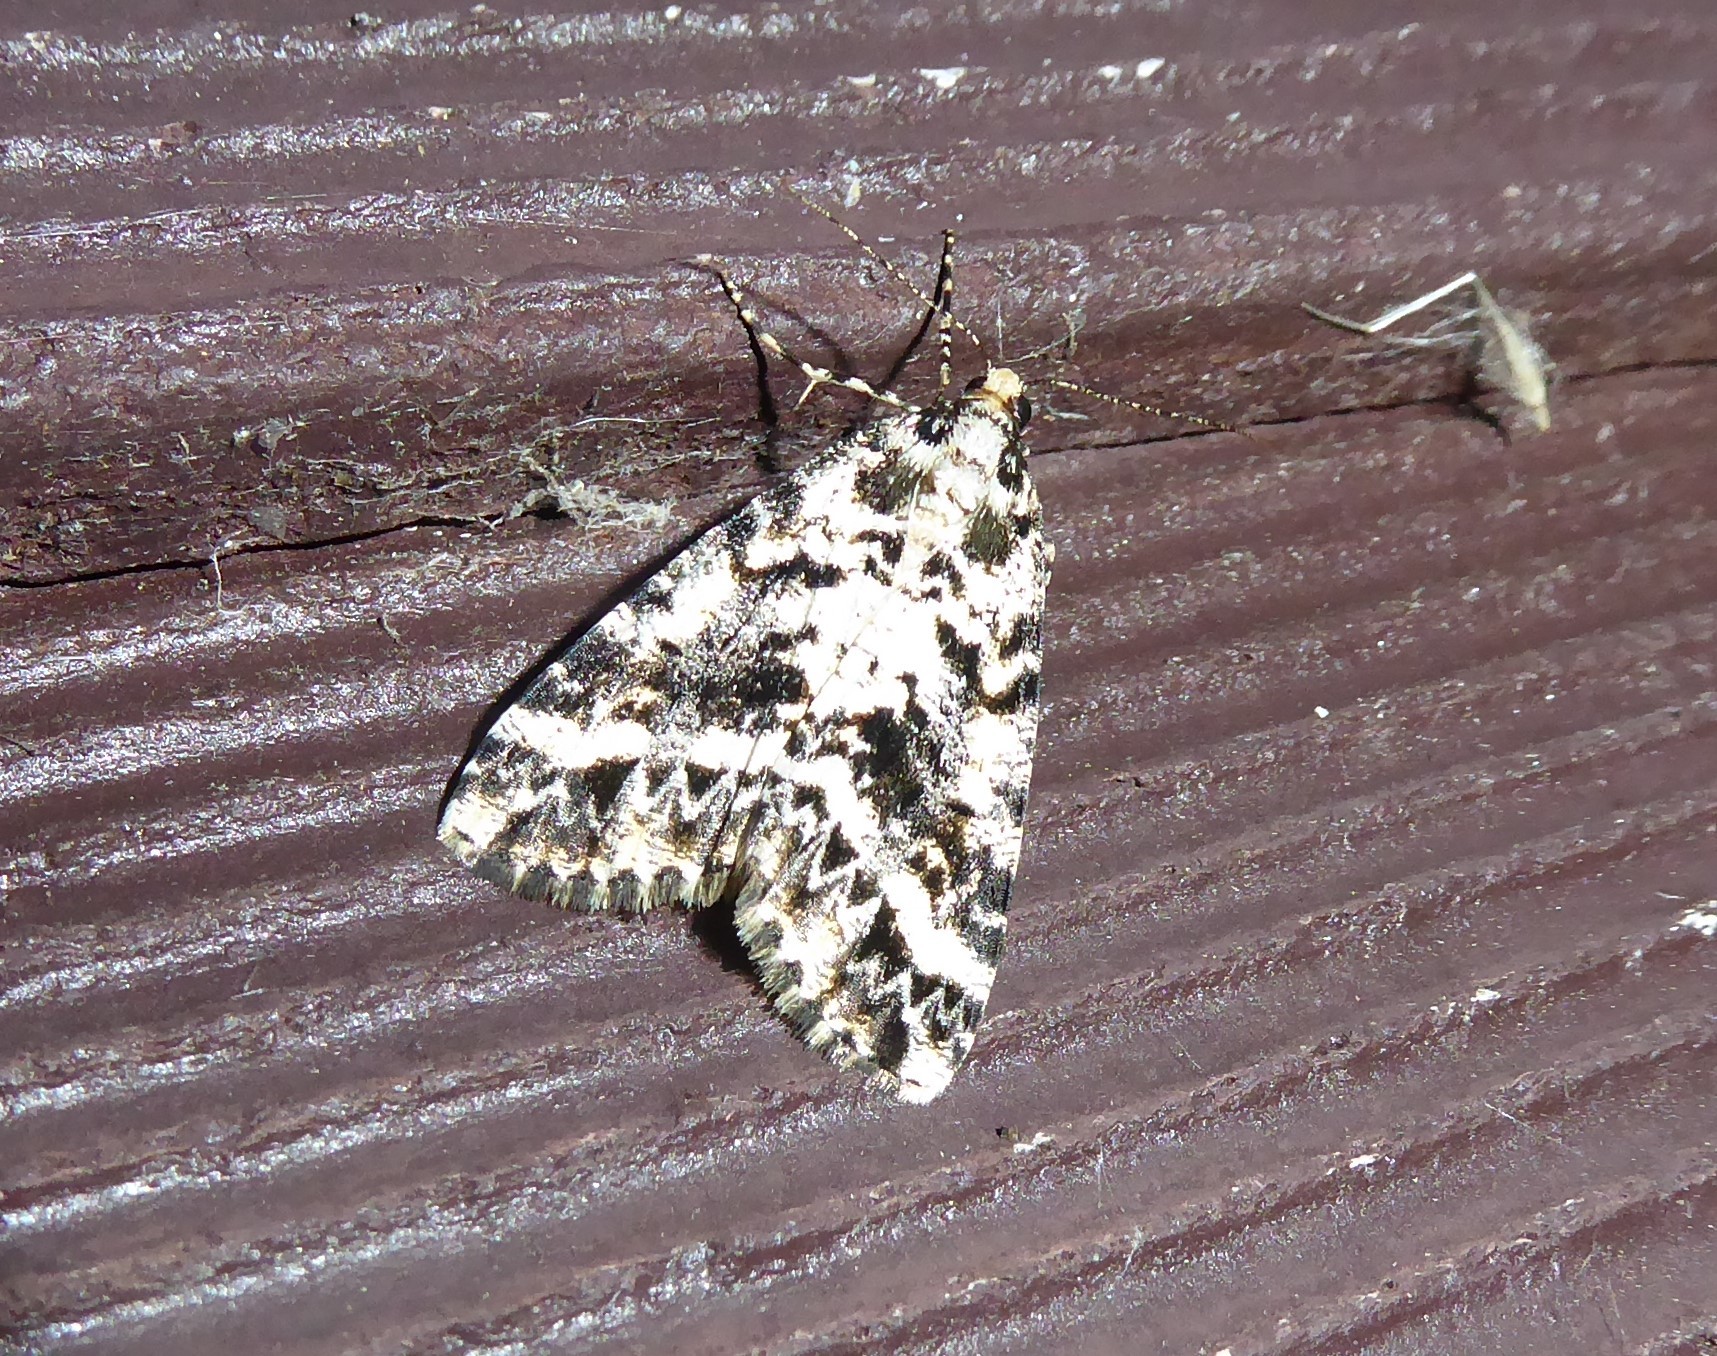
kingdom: Animalia
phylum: Arthropoda
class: Insecta
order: Lepidoptera
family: Geometridae
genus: Pseudocoremia
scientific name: Pseudocoremia leucelaea
